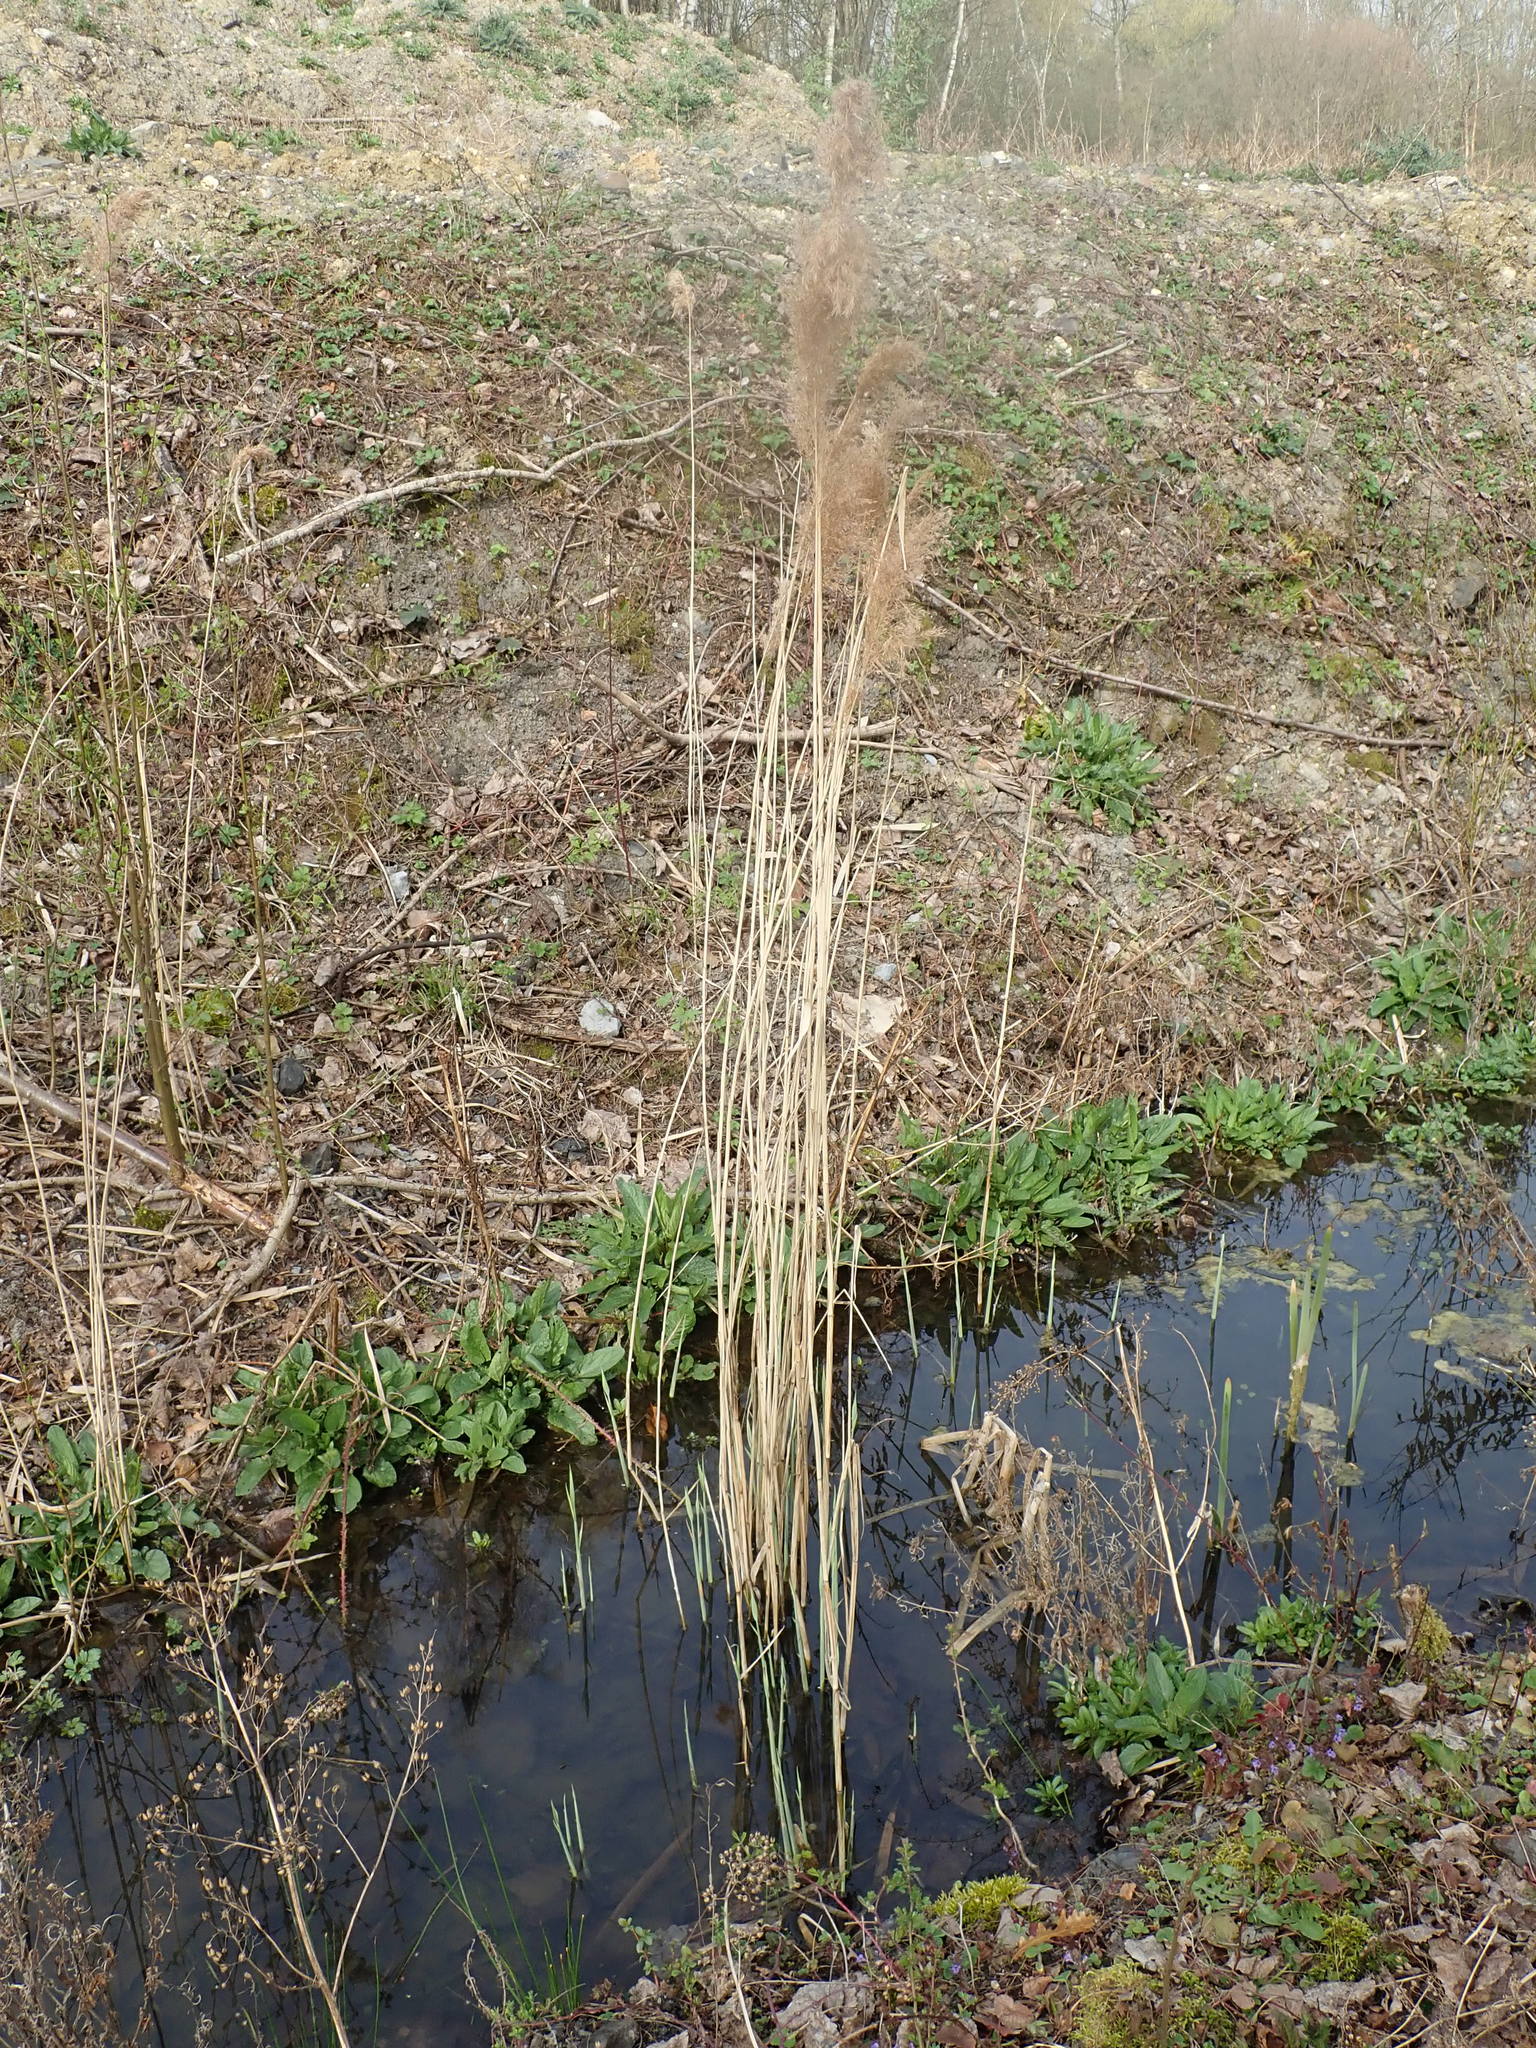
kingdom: Plantae
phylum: Tracheophyta
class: Liliopsida
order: Poales
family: Poaceae
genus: Phragmites
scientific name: Phragmites australis
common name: Common reed
